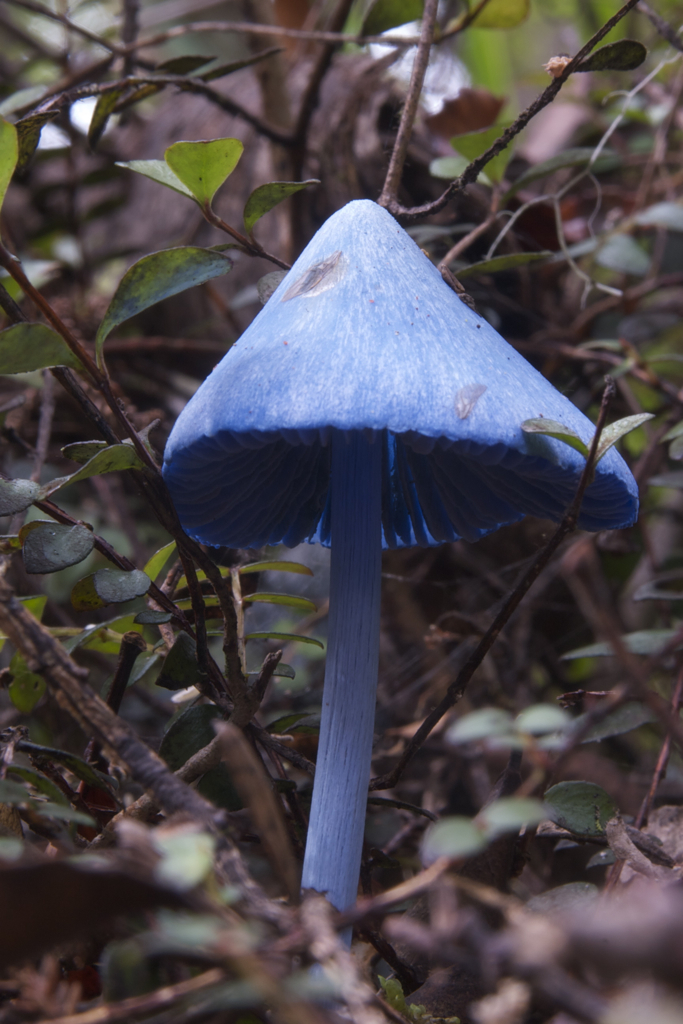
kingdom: Fungi
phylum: Basidiomycota
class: Agaricomycetes
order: Agaricales
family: Entolomataceae
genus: Entoloma
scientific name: Entoloma hochstetteri
